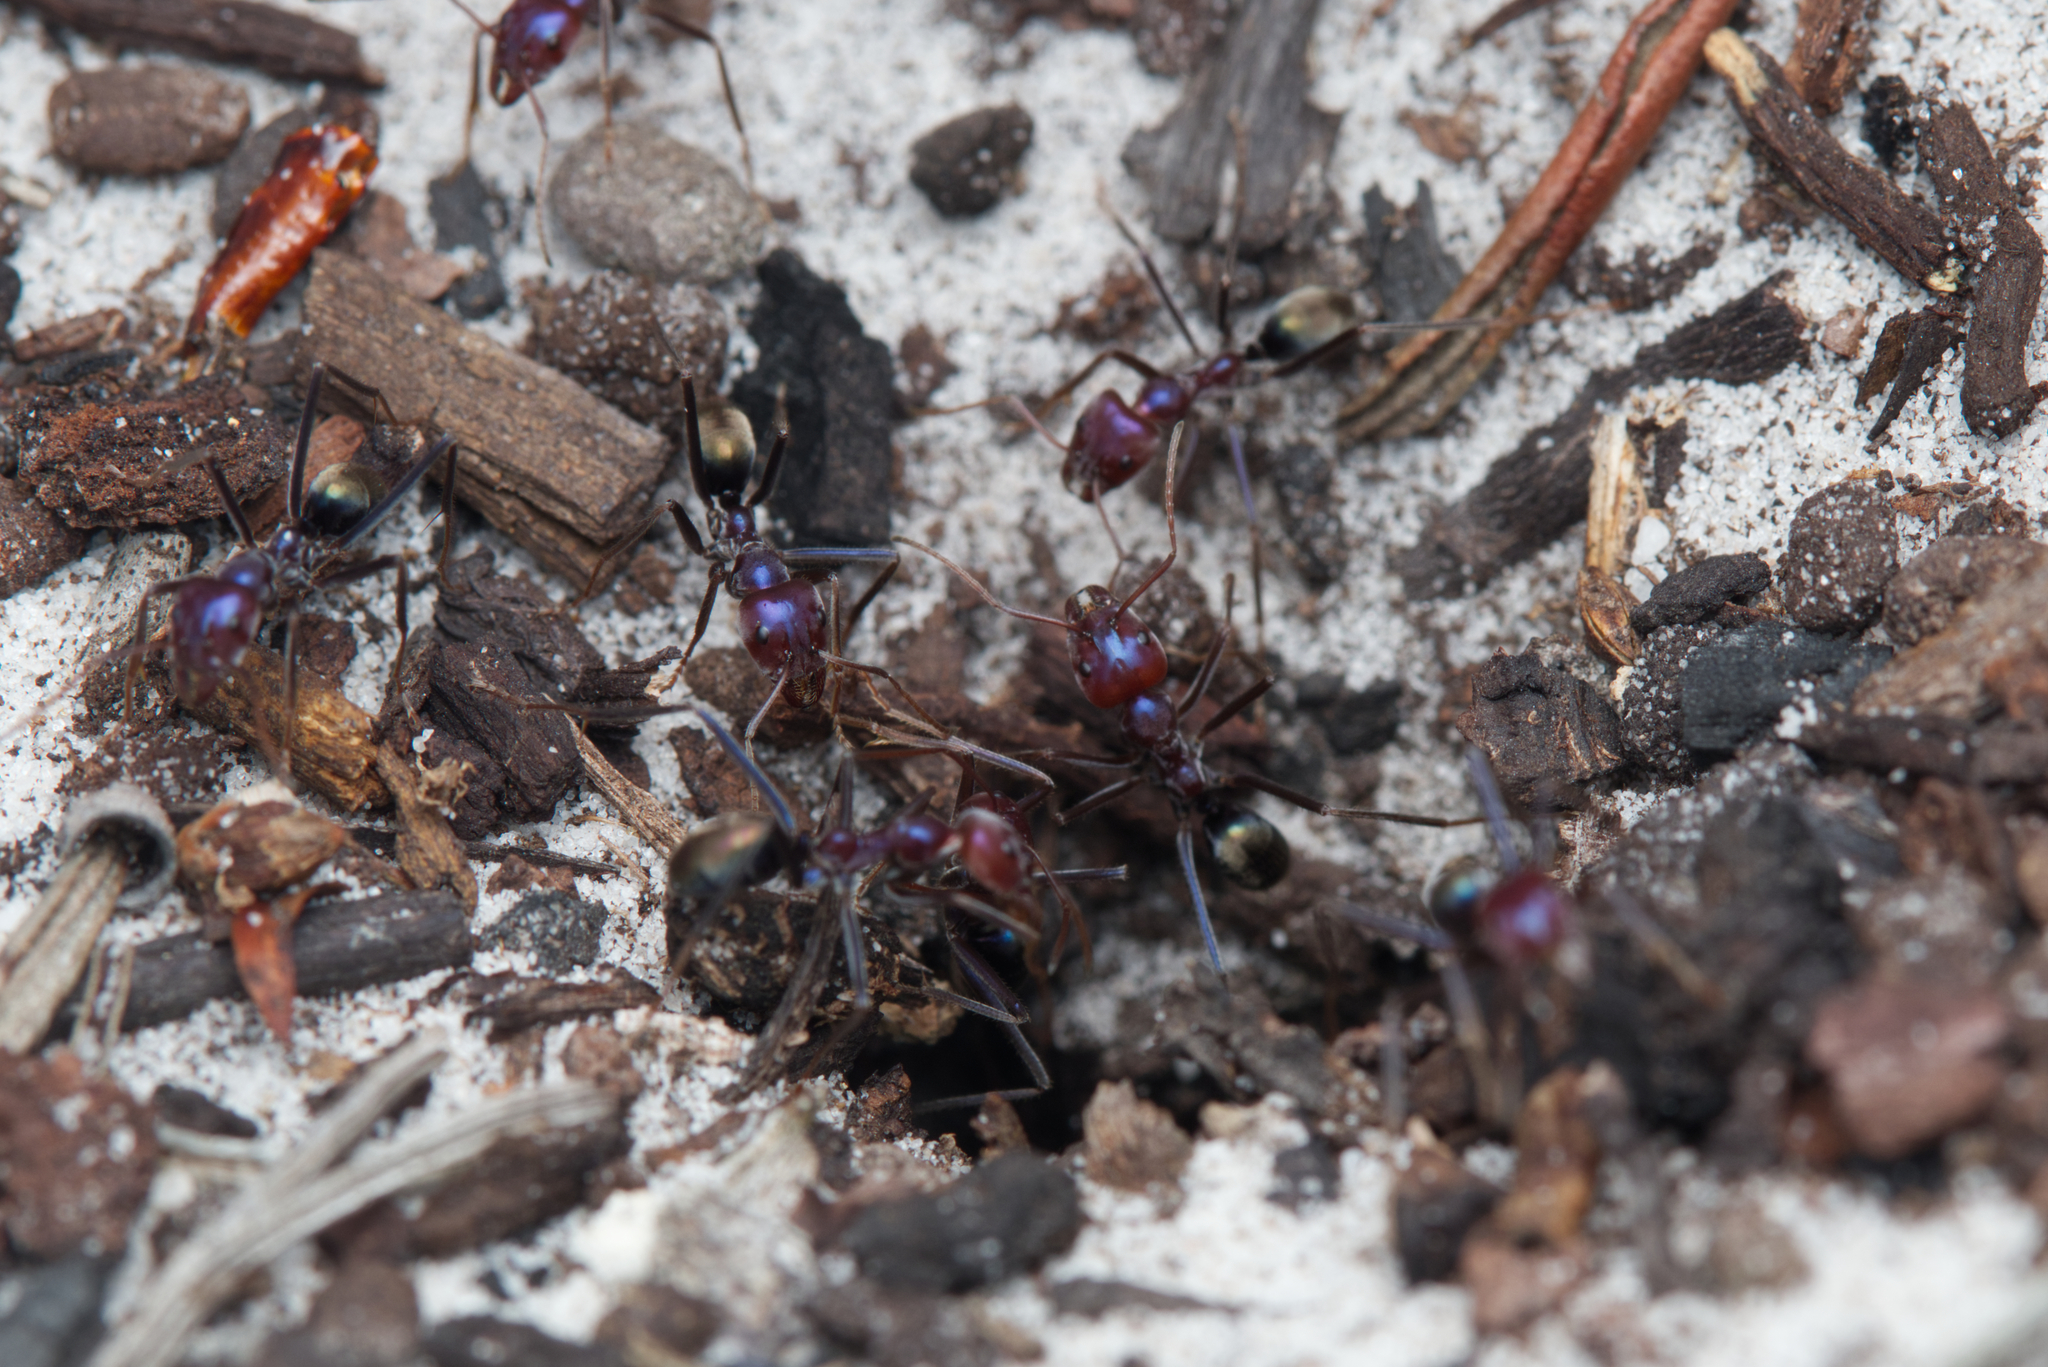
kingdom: Animalia
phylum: Arthropoda
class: Insecta
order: Hymenoptera
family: Formicidae
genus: Iridomyrmex
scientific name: Iridomyrmex purpureus
